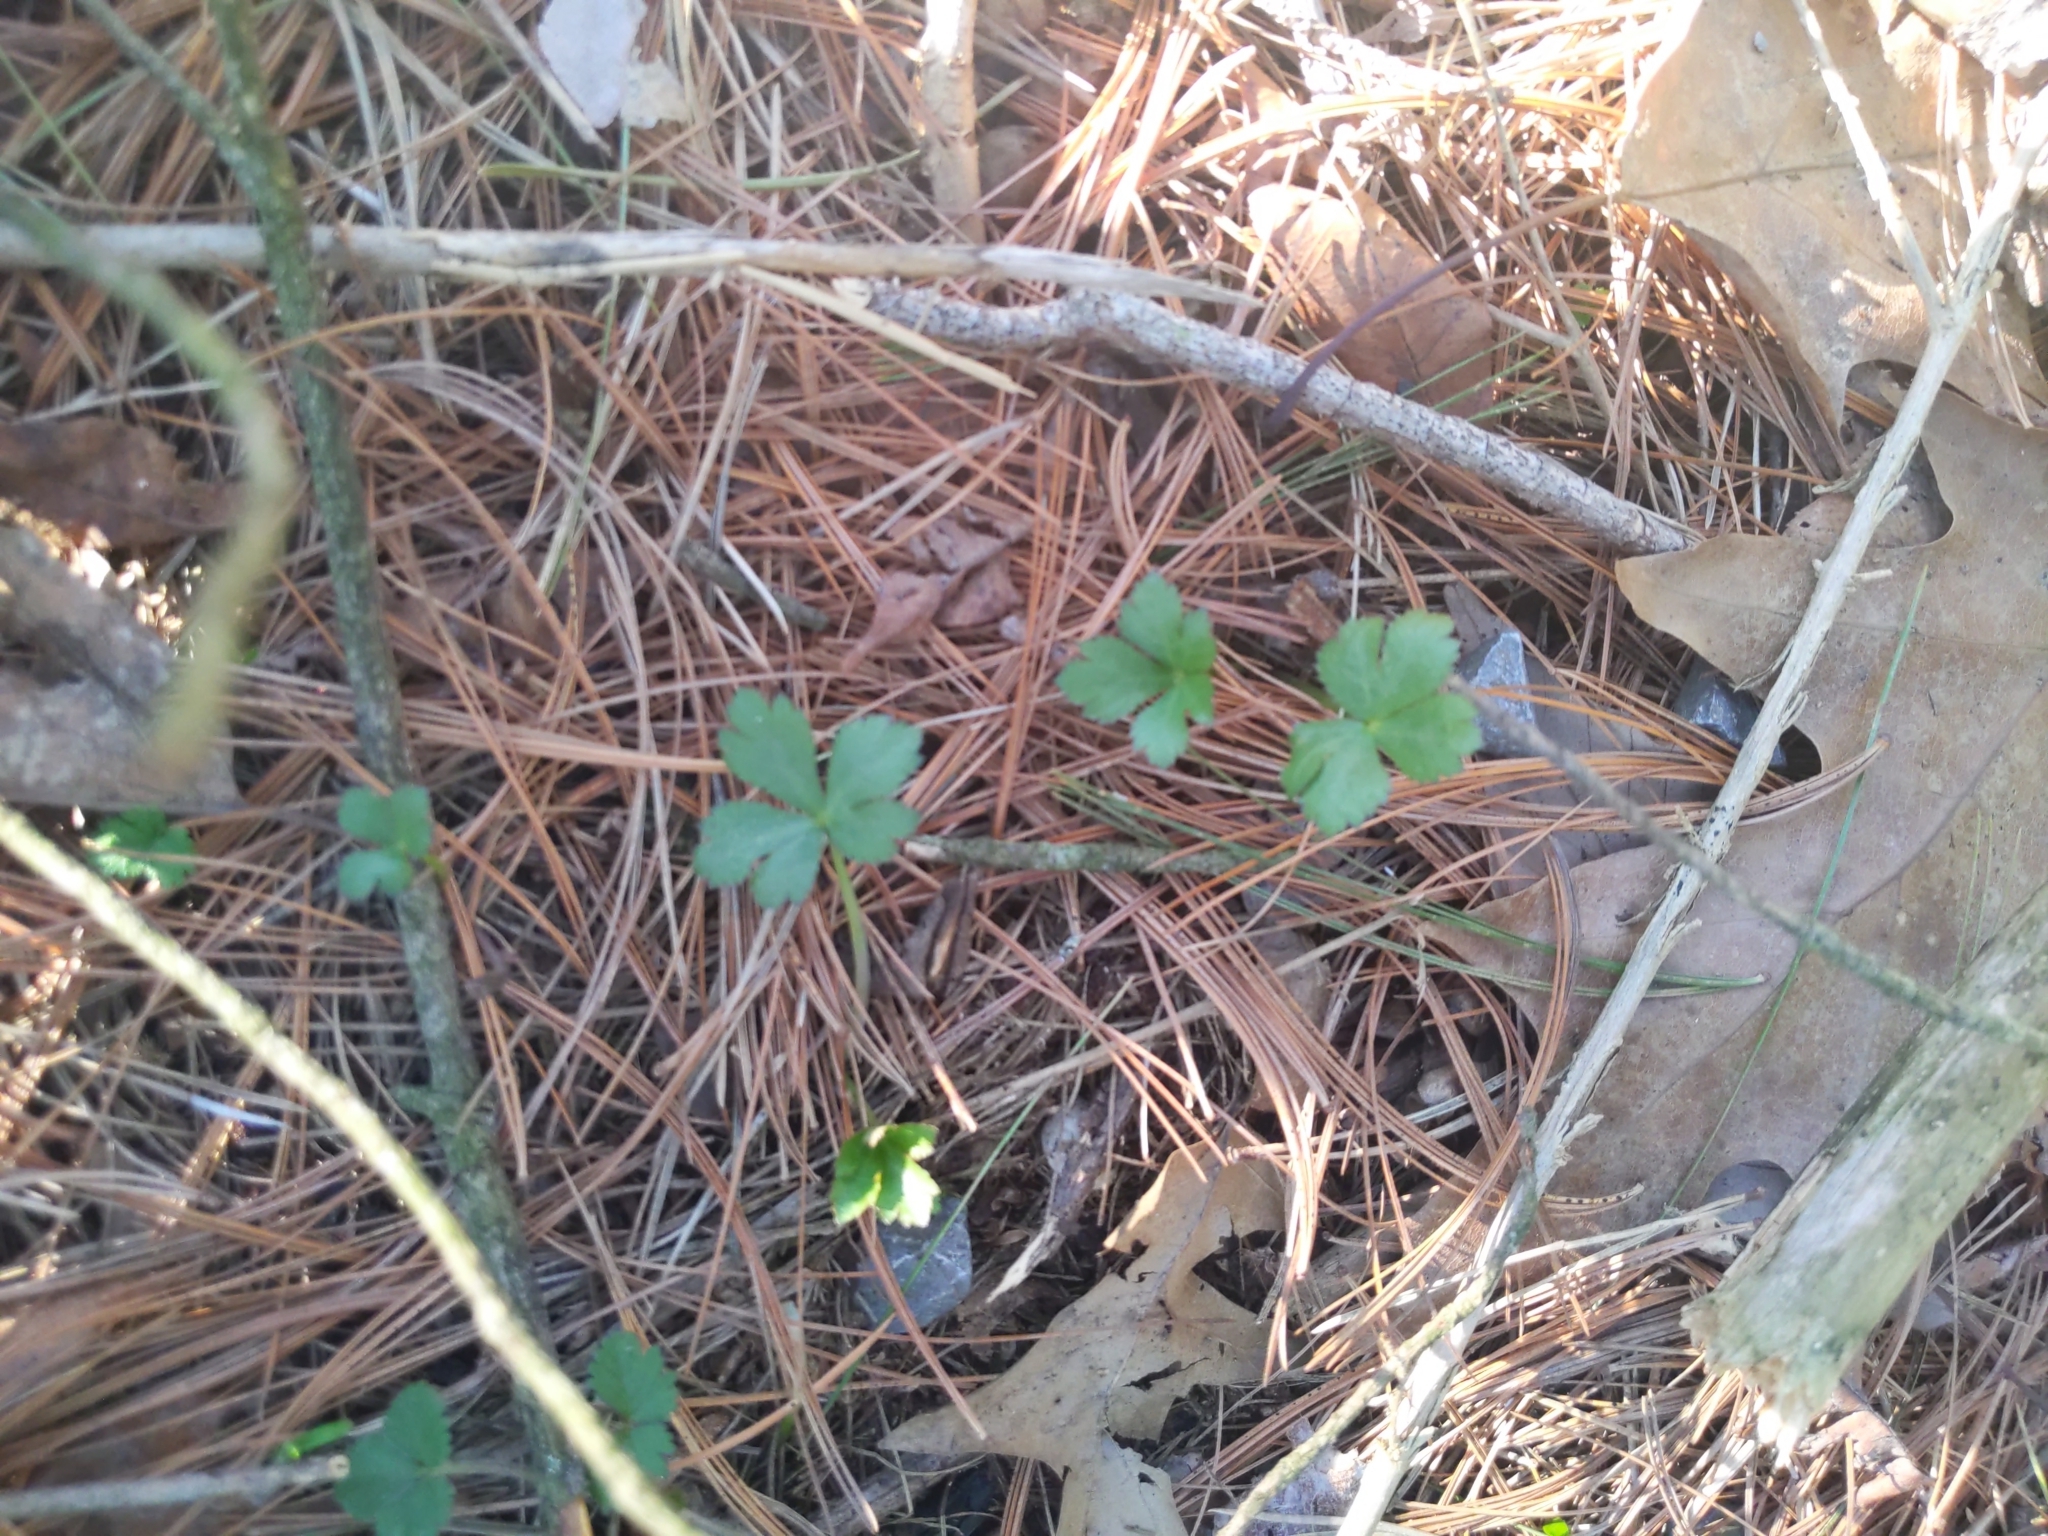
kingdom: Plantae
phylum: Tracheophyta
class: Magnoliopsida
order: Ranunculales
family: Ranunculaceae
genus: Coptis
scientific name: Coptis trifolia
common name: Canker-root
